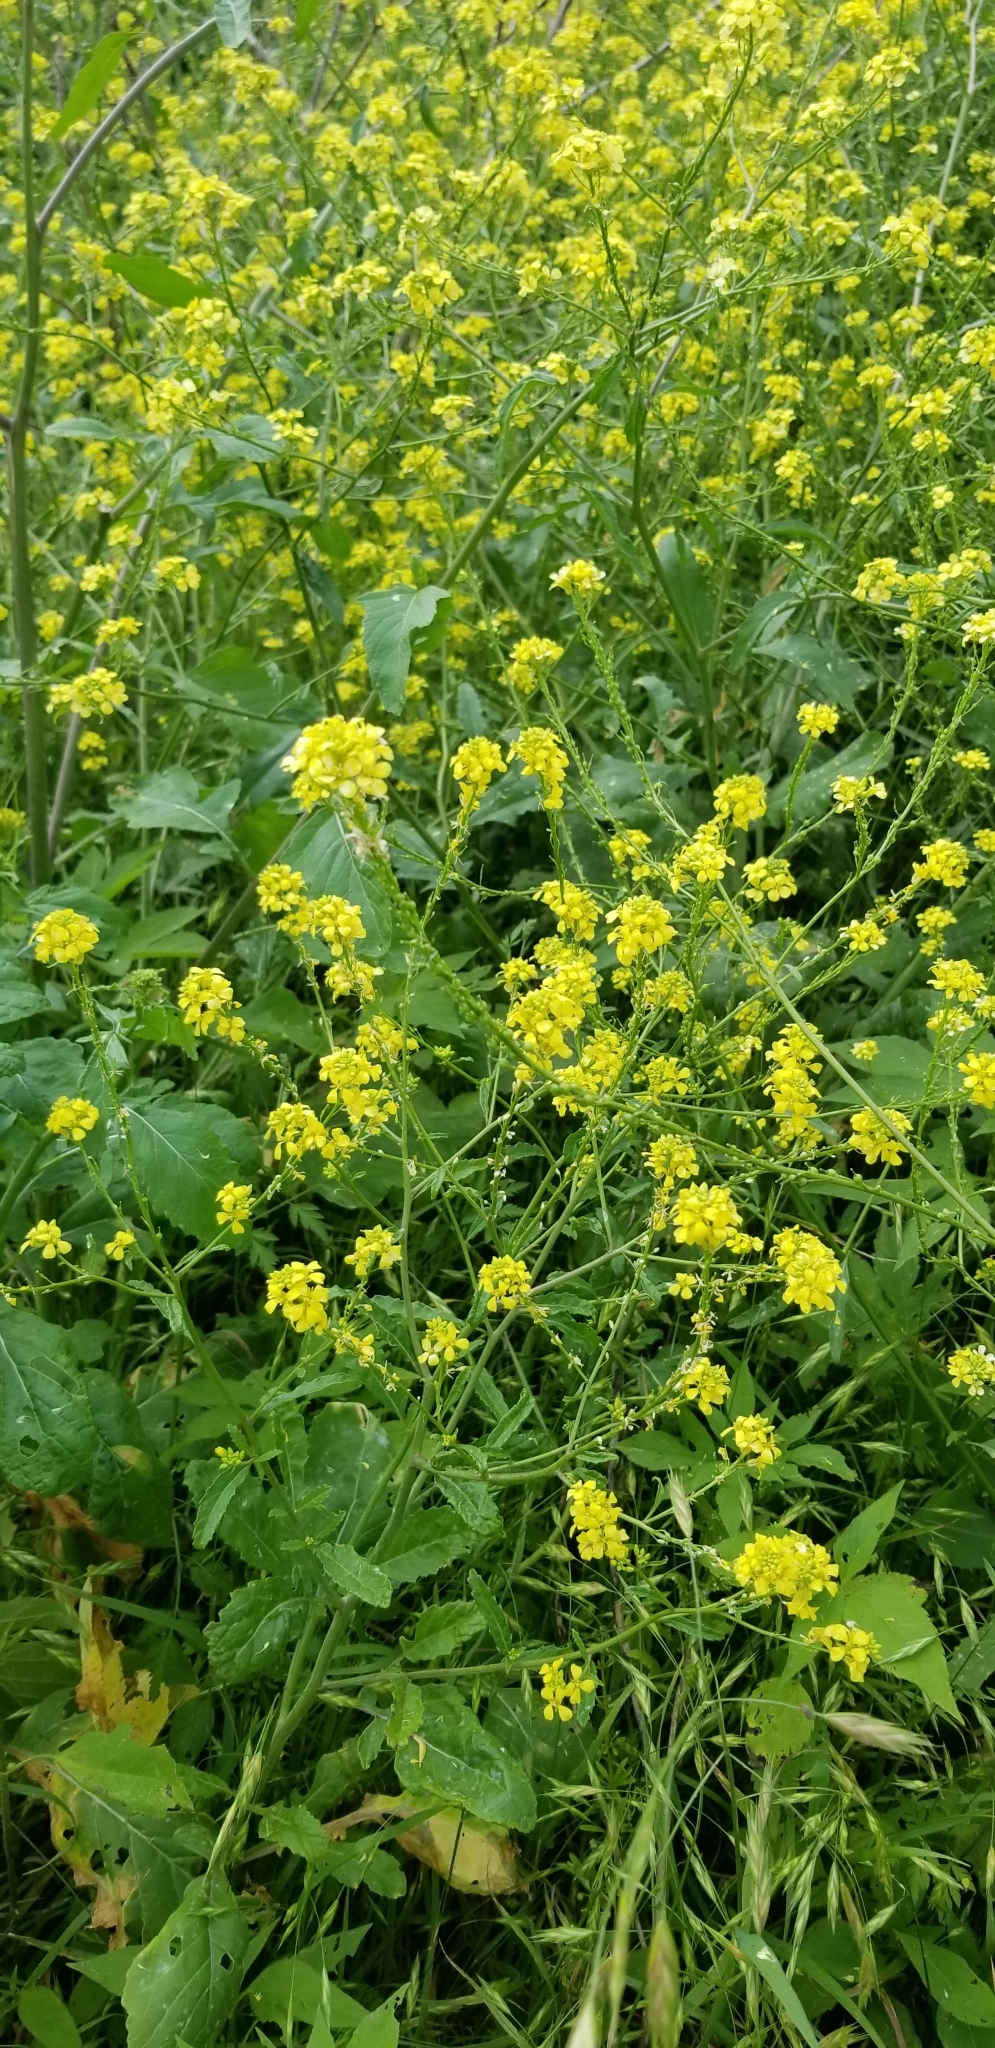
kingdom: Plantae
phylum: Tracheophyta
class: Magnoliopsida
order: Brassicales
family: Brassicaceae
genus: Rapistrum
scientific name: Rapistrum rugosum
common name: Annual bastardcabbage
